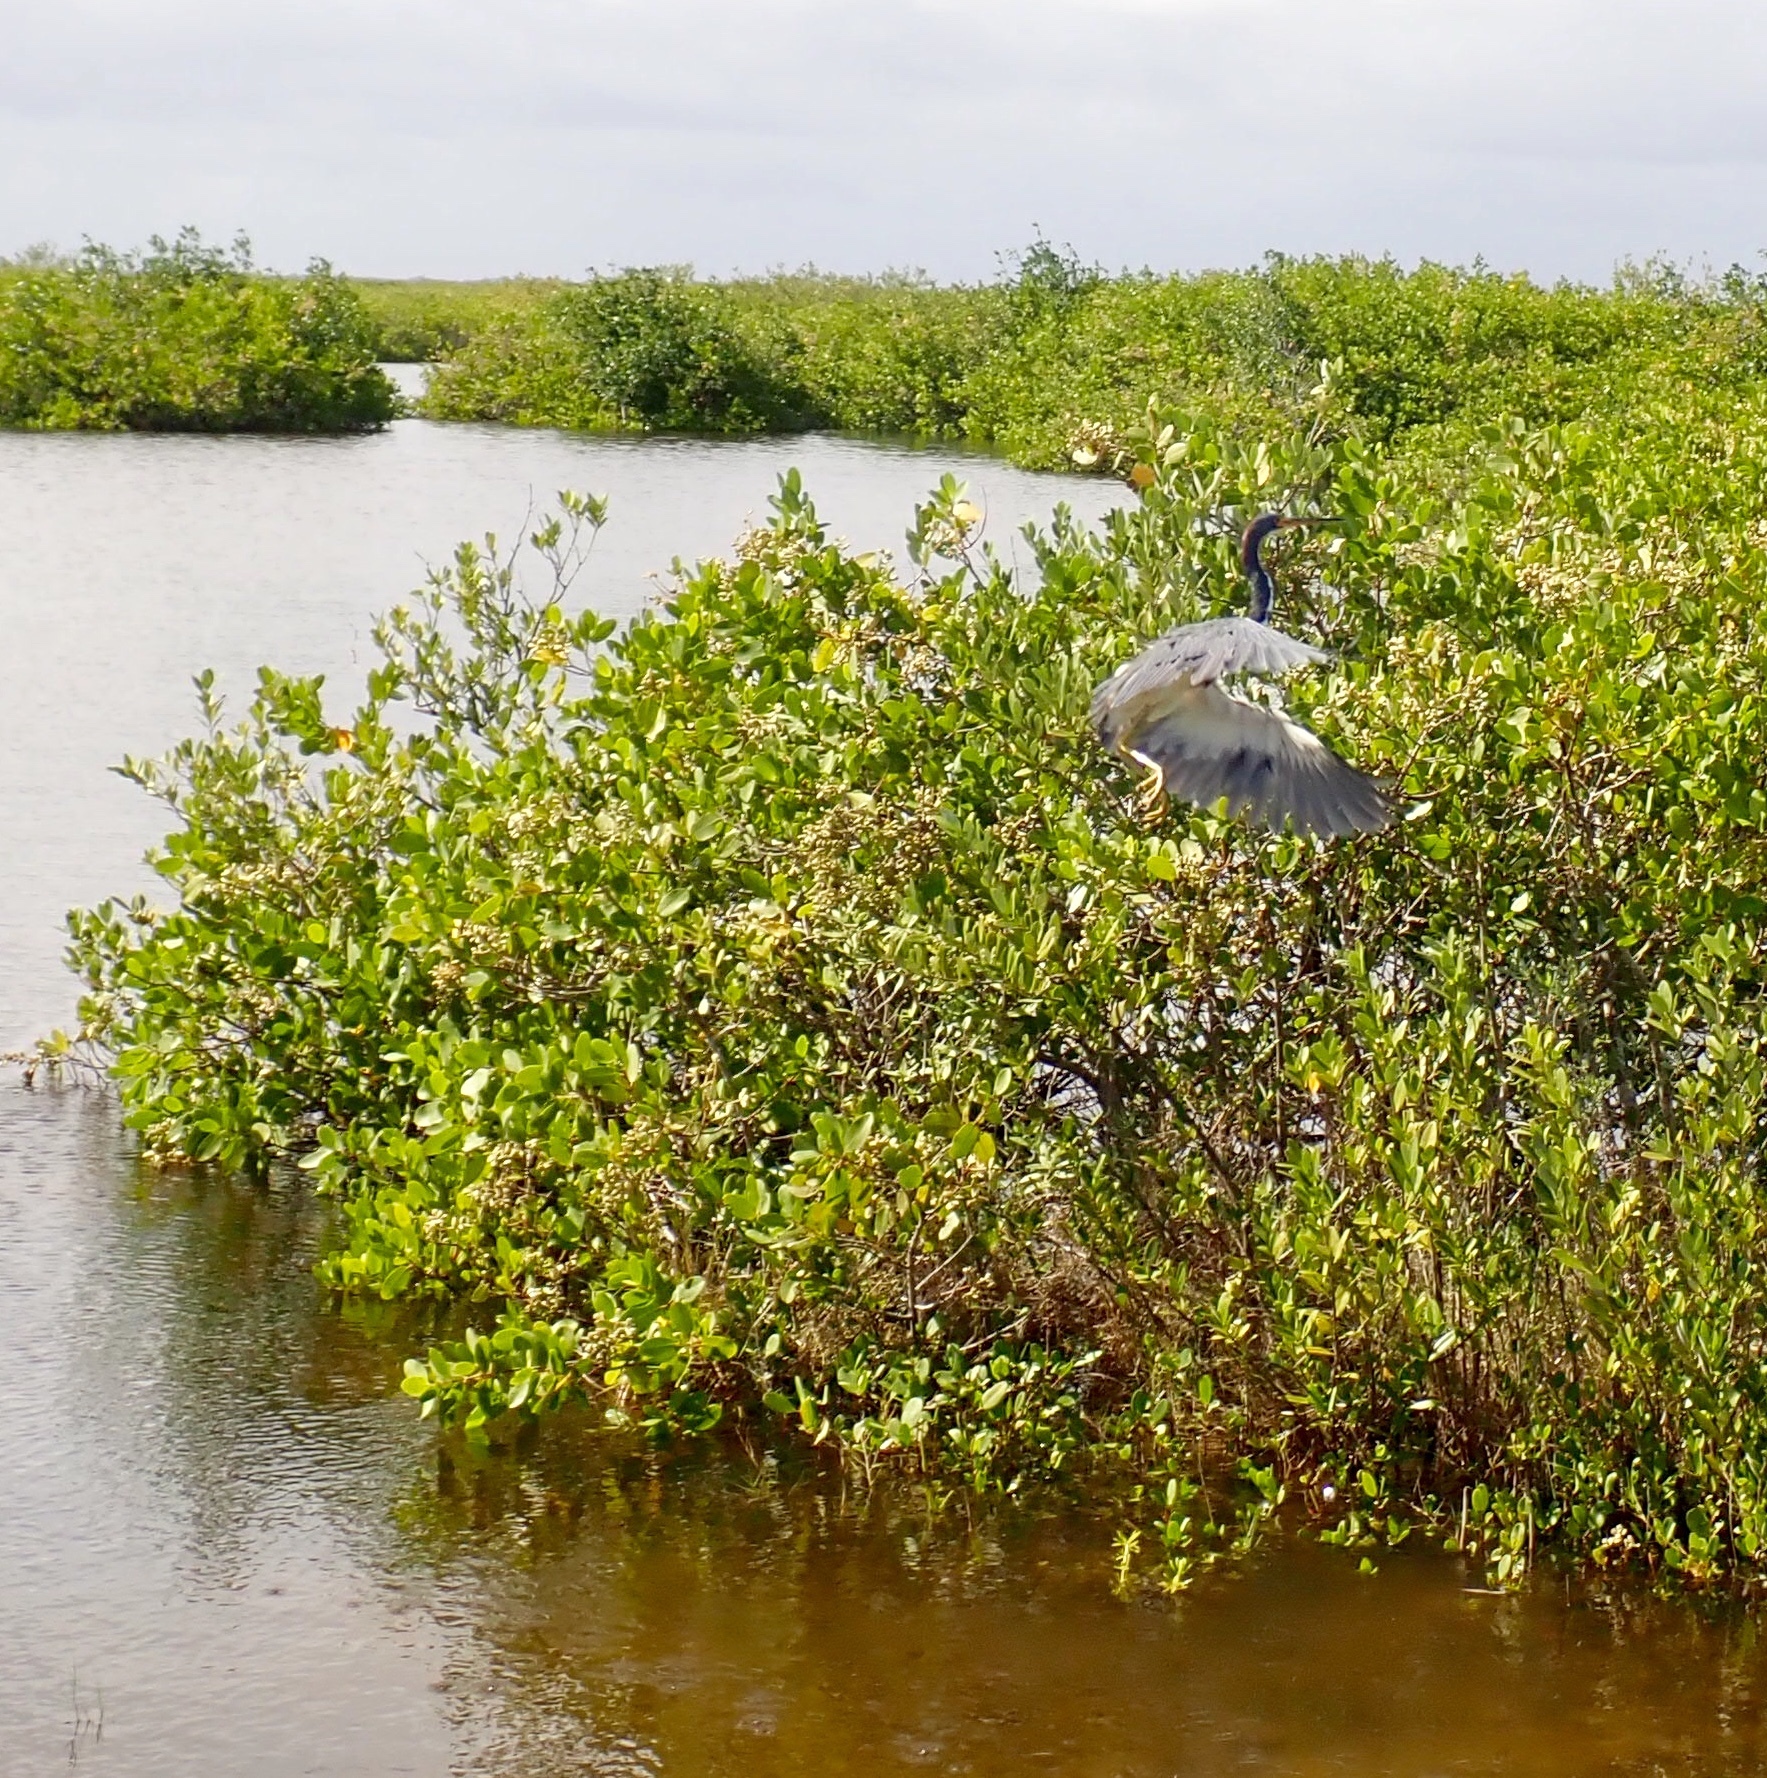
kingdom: Animalia
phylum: Chordata
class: Aves
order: Pelecaniformes
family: Ardeidae
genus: Egretta
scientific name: Egretta tricolor
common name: Tricolored heron
